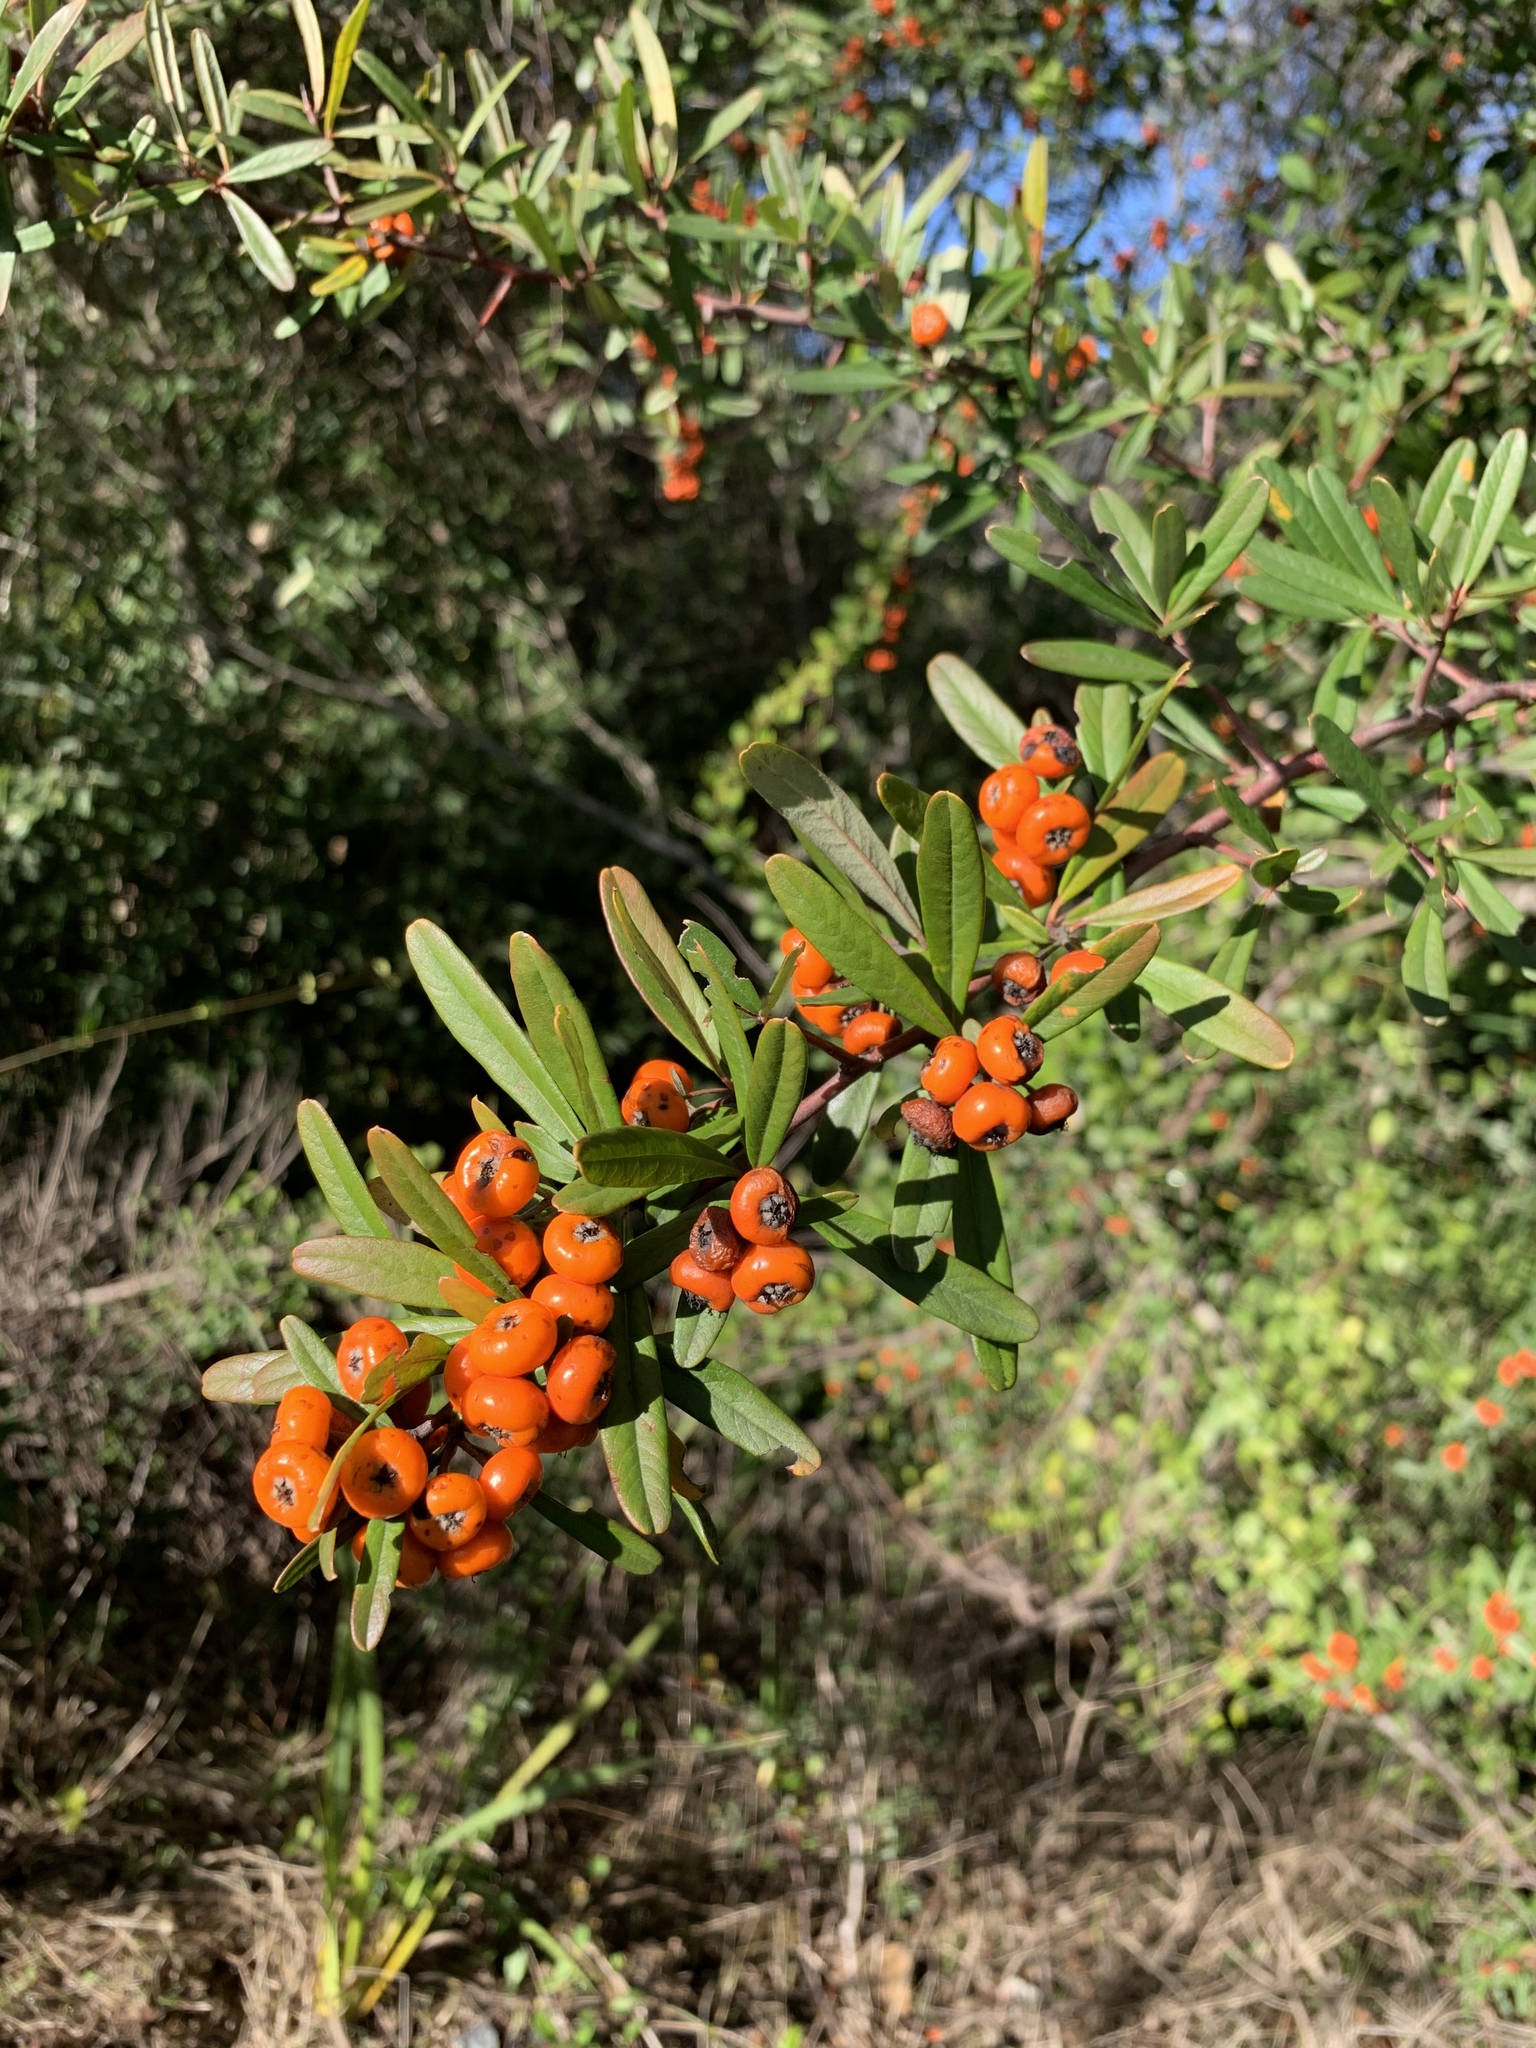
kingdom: Plantae
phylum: Tracheophyta
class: Magnoliopsida
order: Rosales
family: Rosaceae
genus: Pyracantha
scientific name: Pyracantha angustifolia
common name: Narrowleaf firethorn
